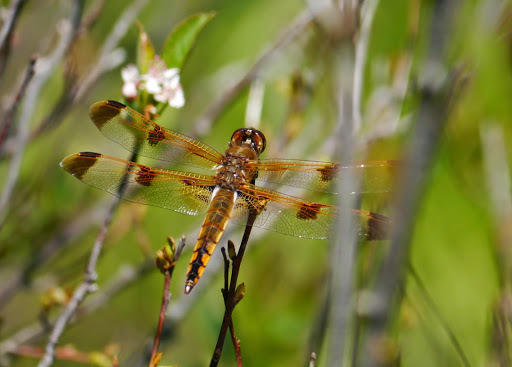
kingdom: Animalia
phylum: Arthropoda
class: Insecta
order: Odonata
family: Libellulidae
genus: Libellula
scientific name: Libellula semifasciata
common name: Painted skimmer
